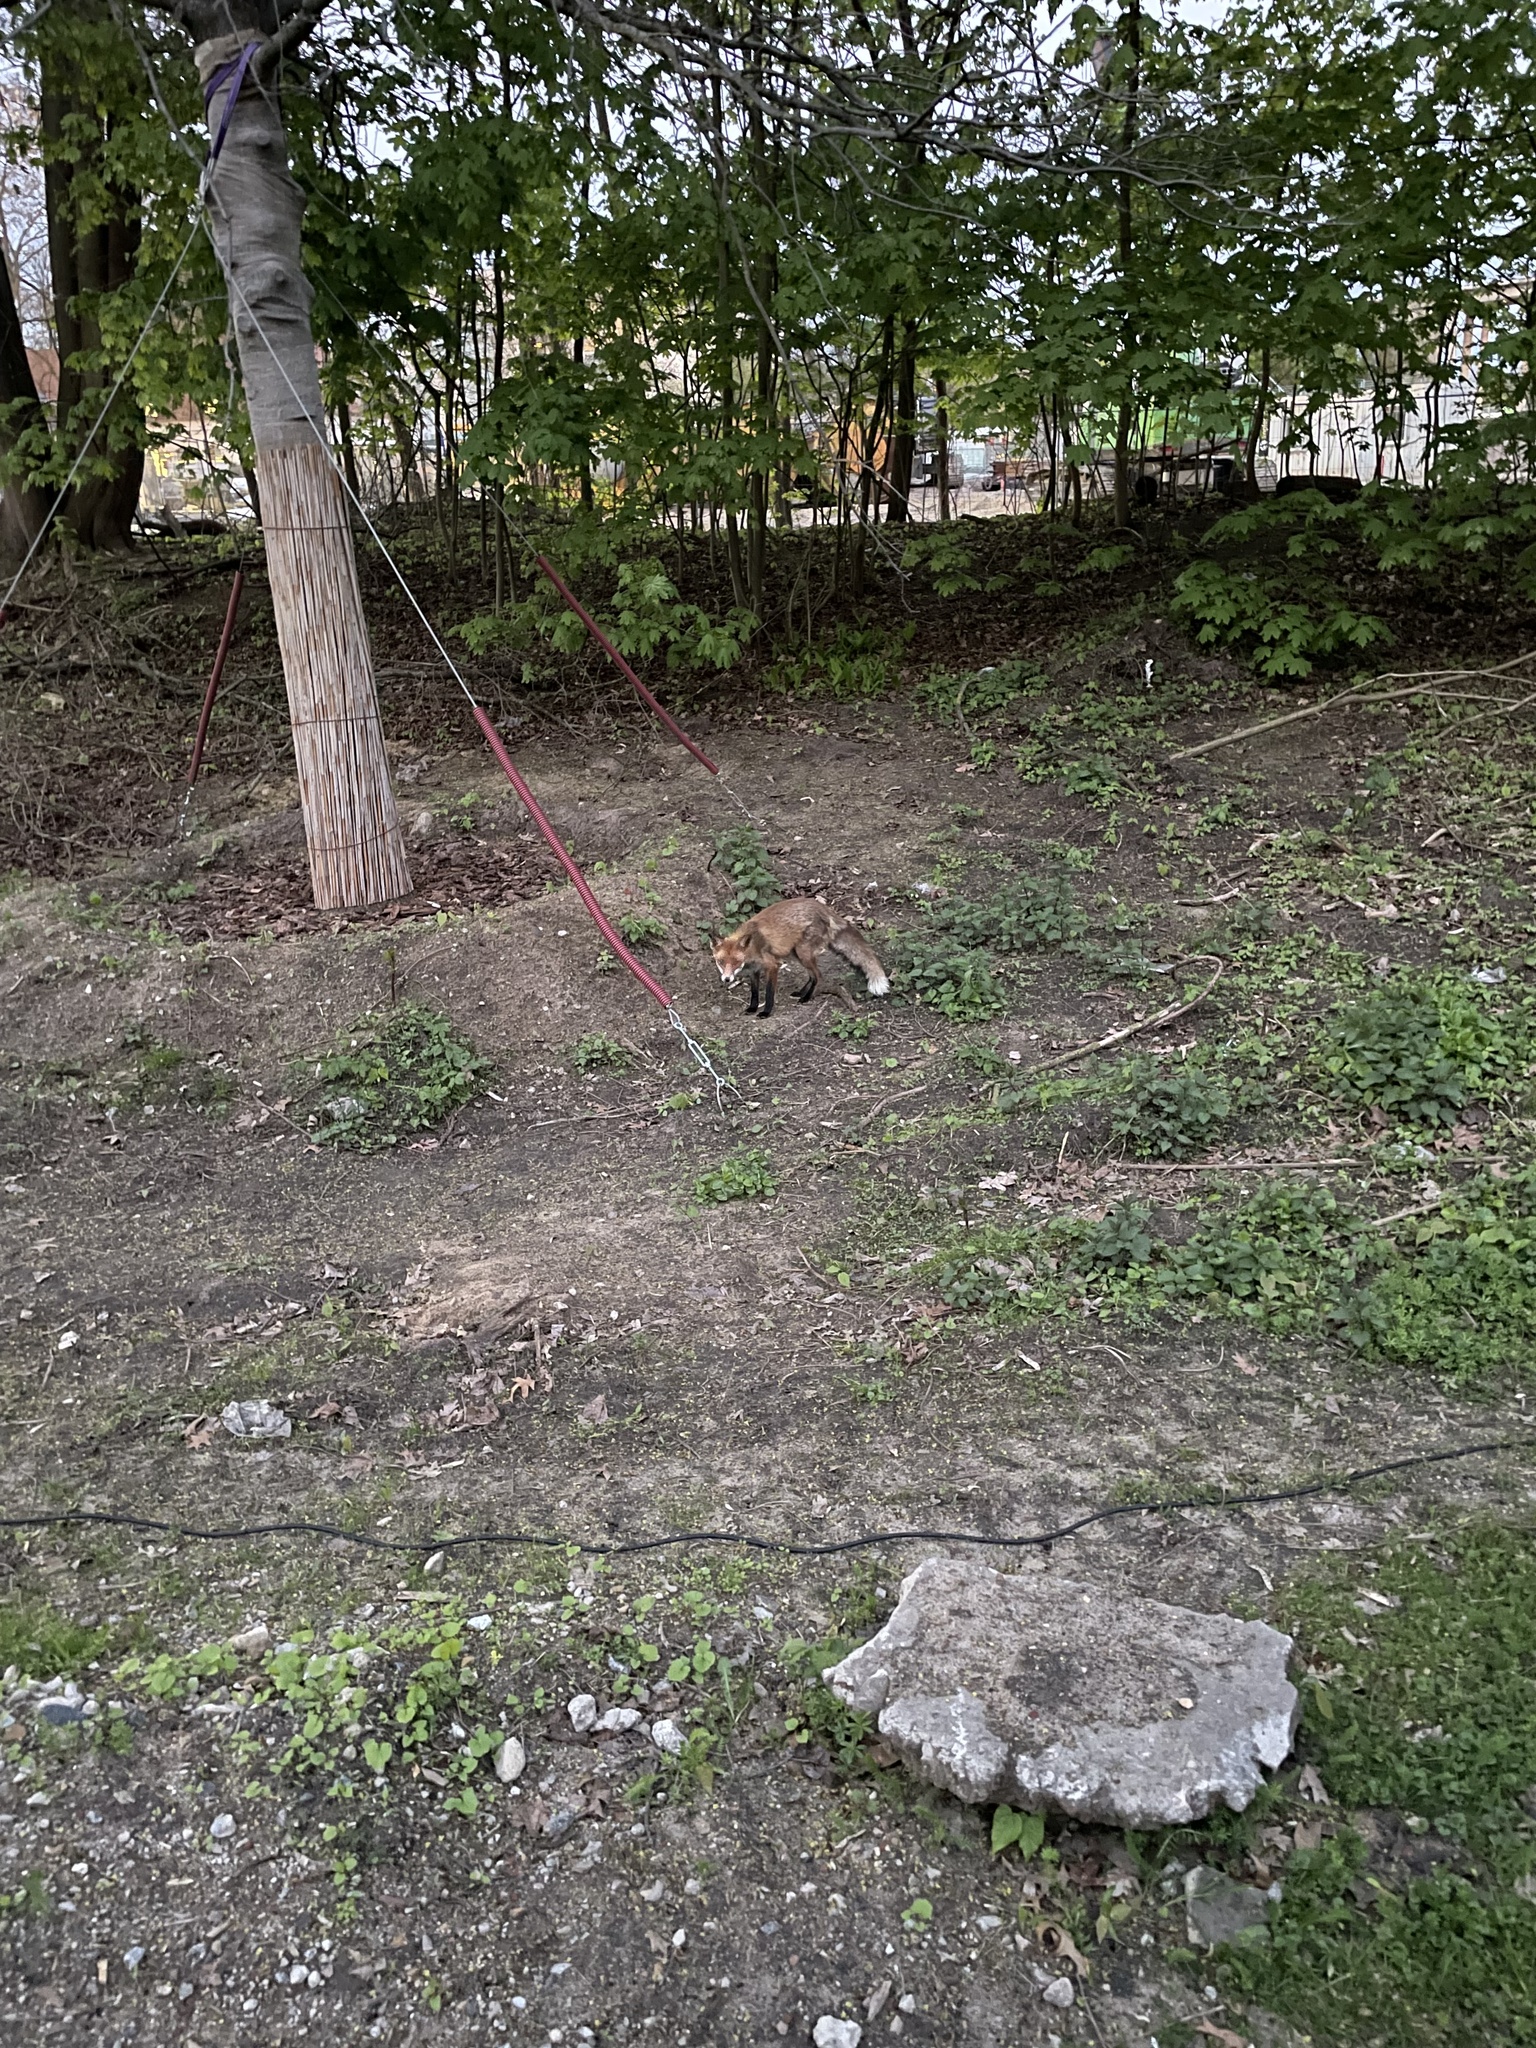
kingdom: Animalia
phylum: Chordata
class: Mammalia
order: Carnivora
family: Canidae
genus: Vulpes
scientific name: Vulpes vulpes
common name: Red fox
